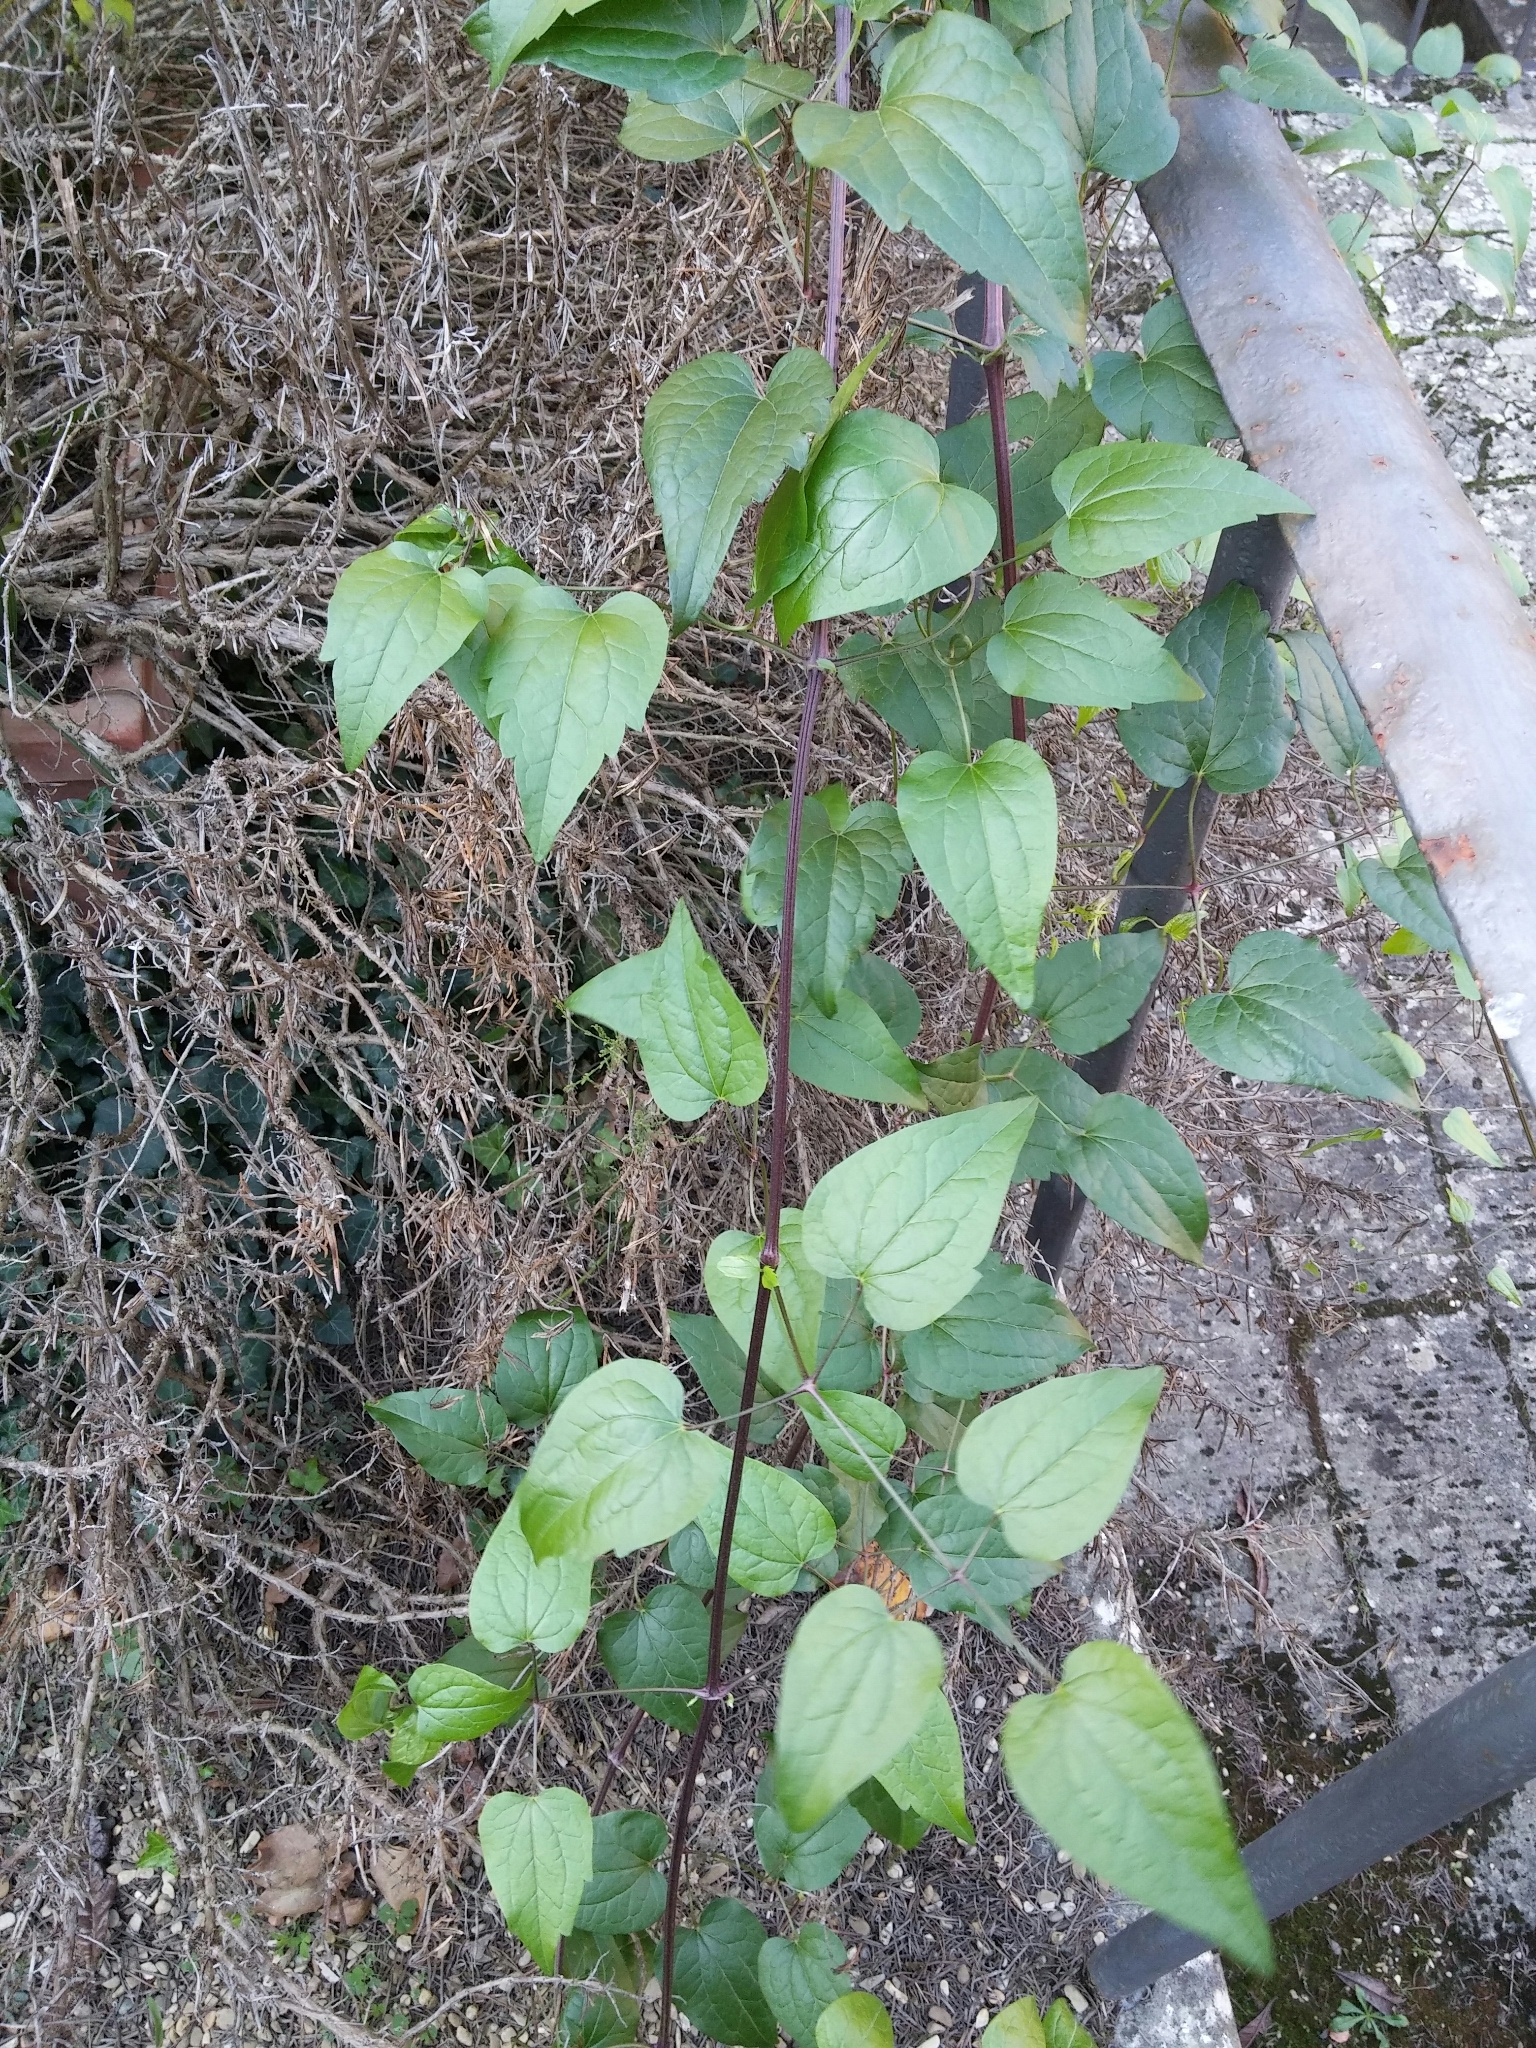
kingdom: Plantae
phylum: Tracheophyta
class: Magnoliopsida
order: Ranunculales
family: Ranunculaceae
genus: Clematis
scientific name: Clematis vitalba
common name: Evergreen clematis
